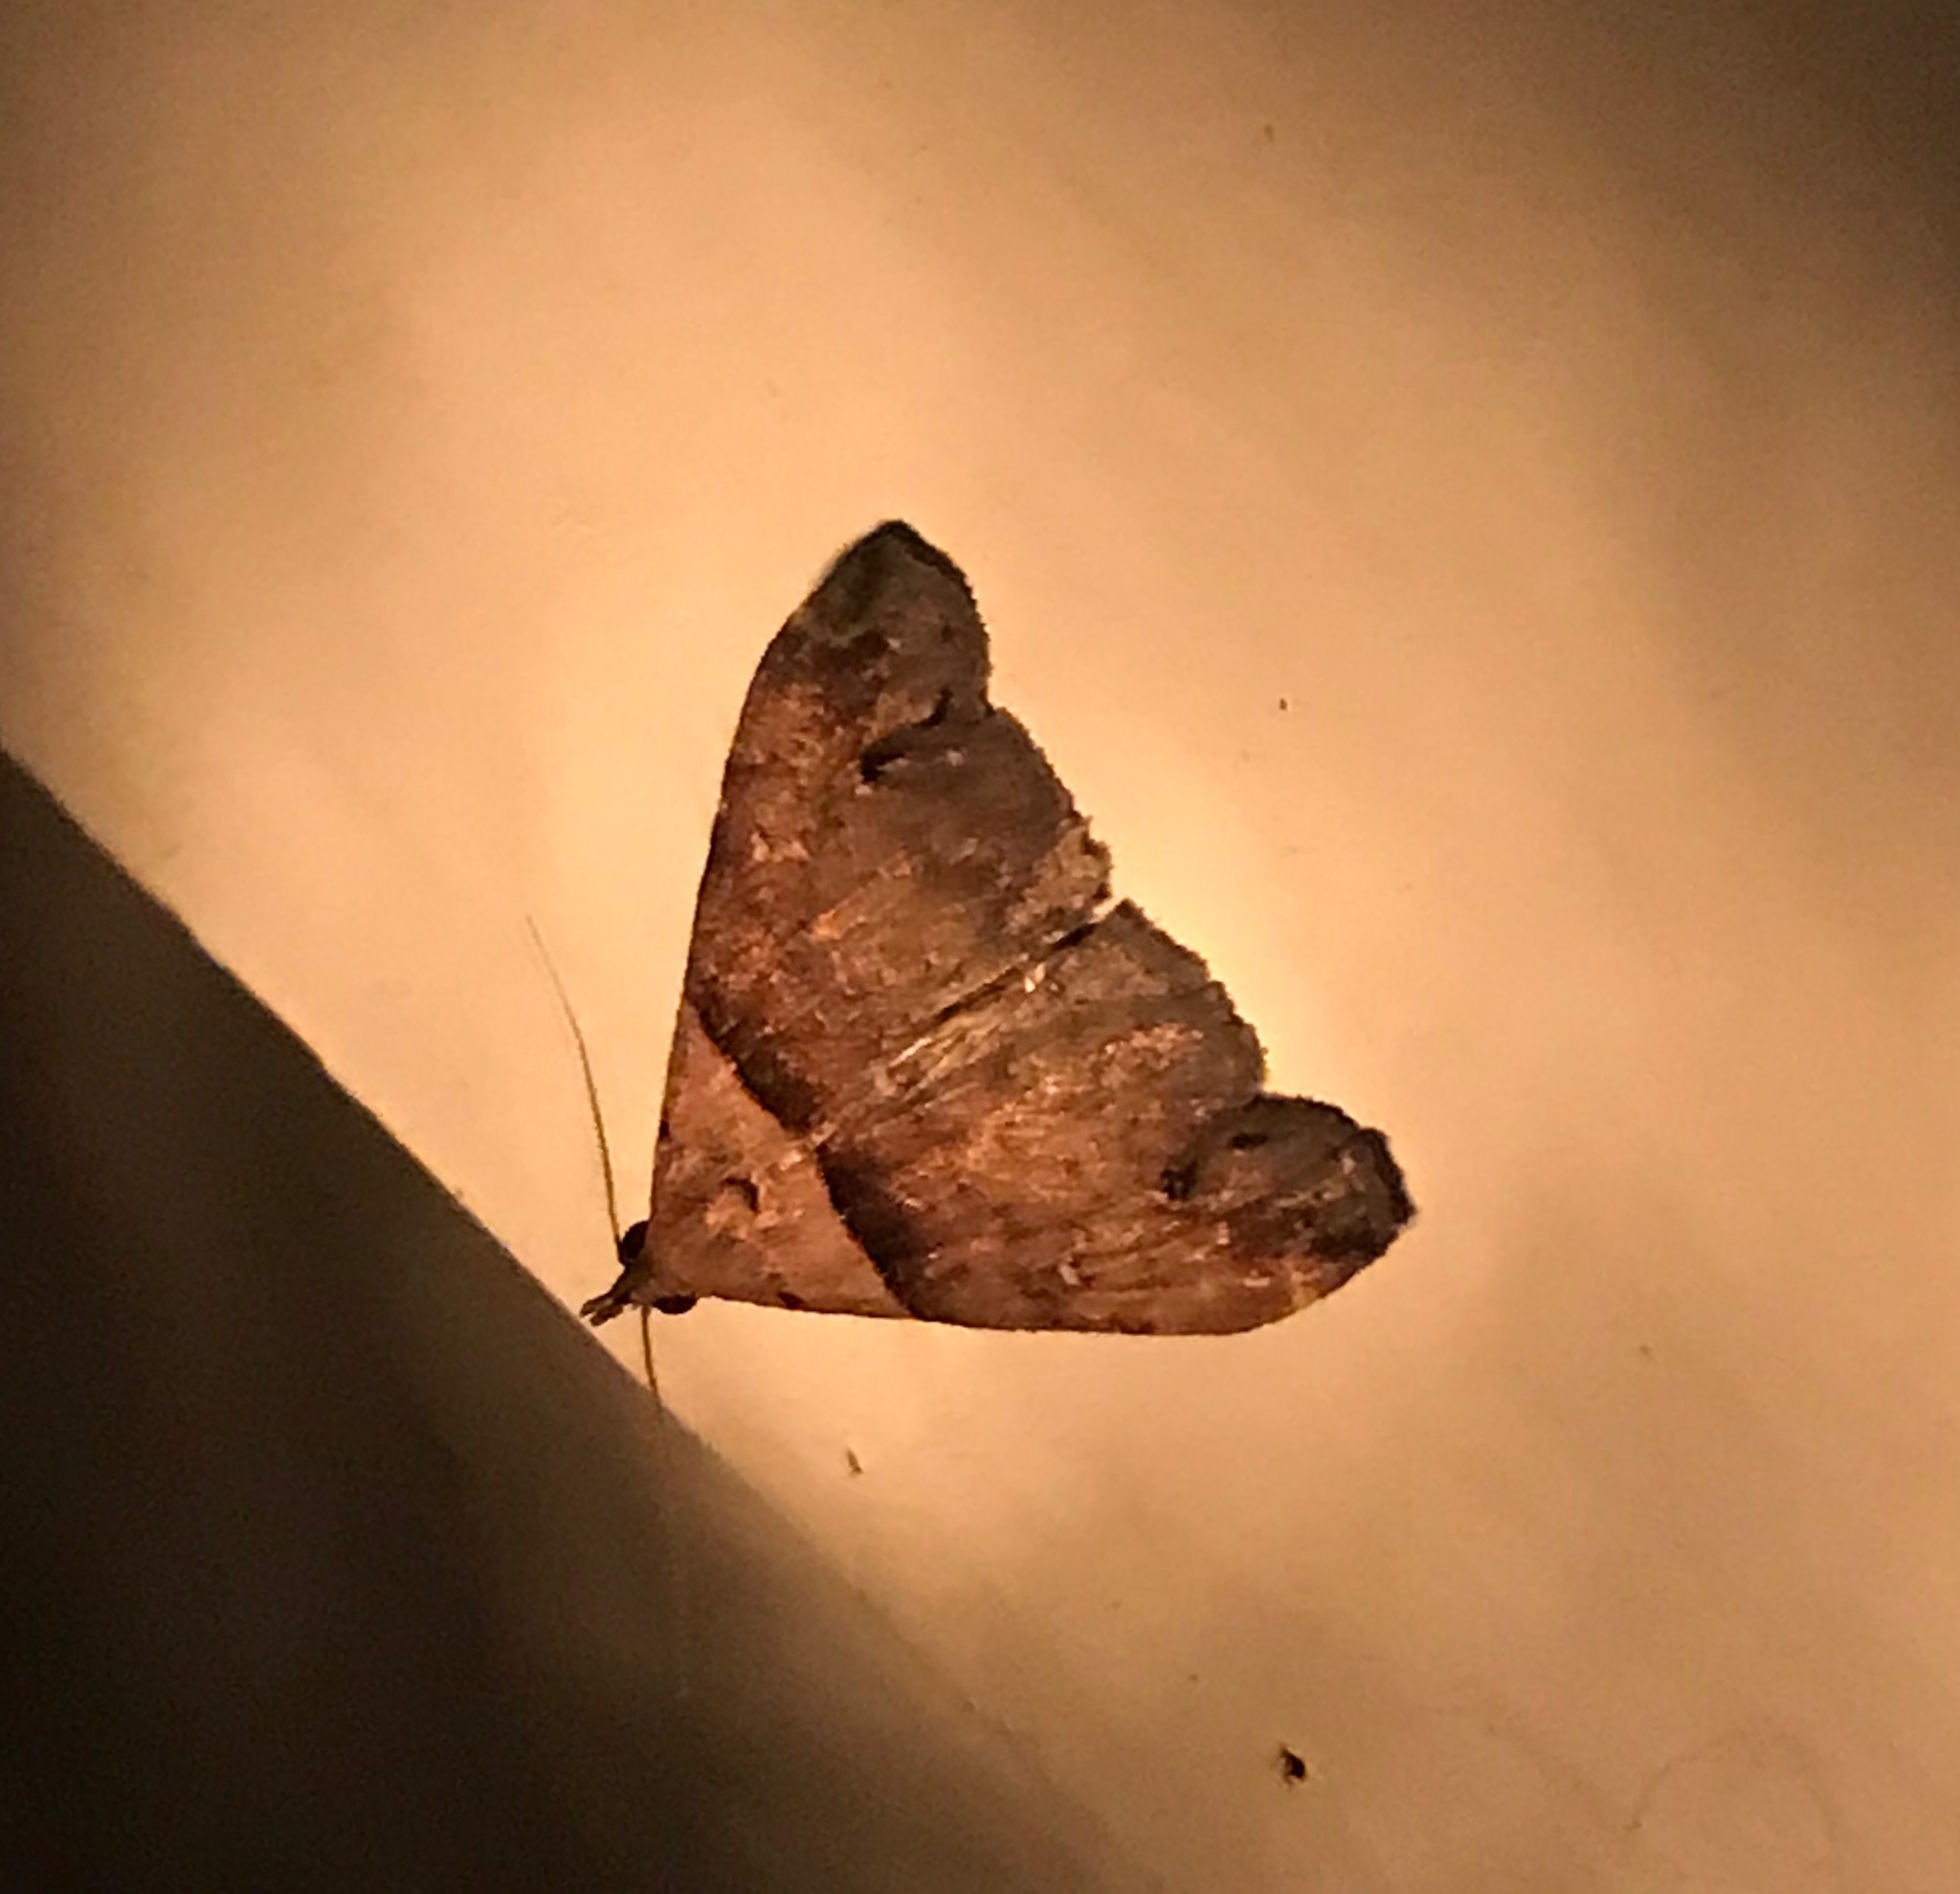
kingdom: Animalia
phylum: Arthropoda
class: Insecta
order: Lepidoptera
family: Erebidae
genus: Lascoria
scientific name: Lascoria ambigualis
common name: Ambiguous moth
